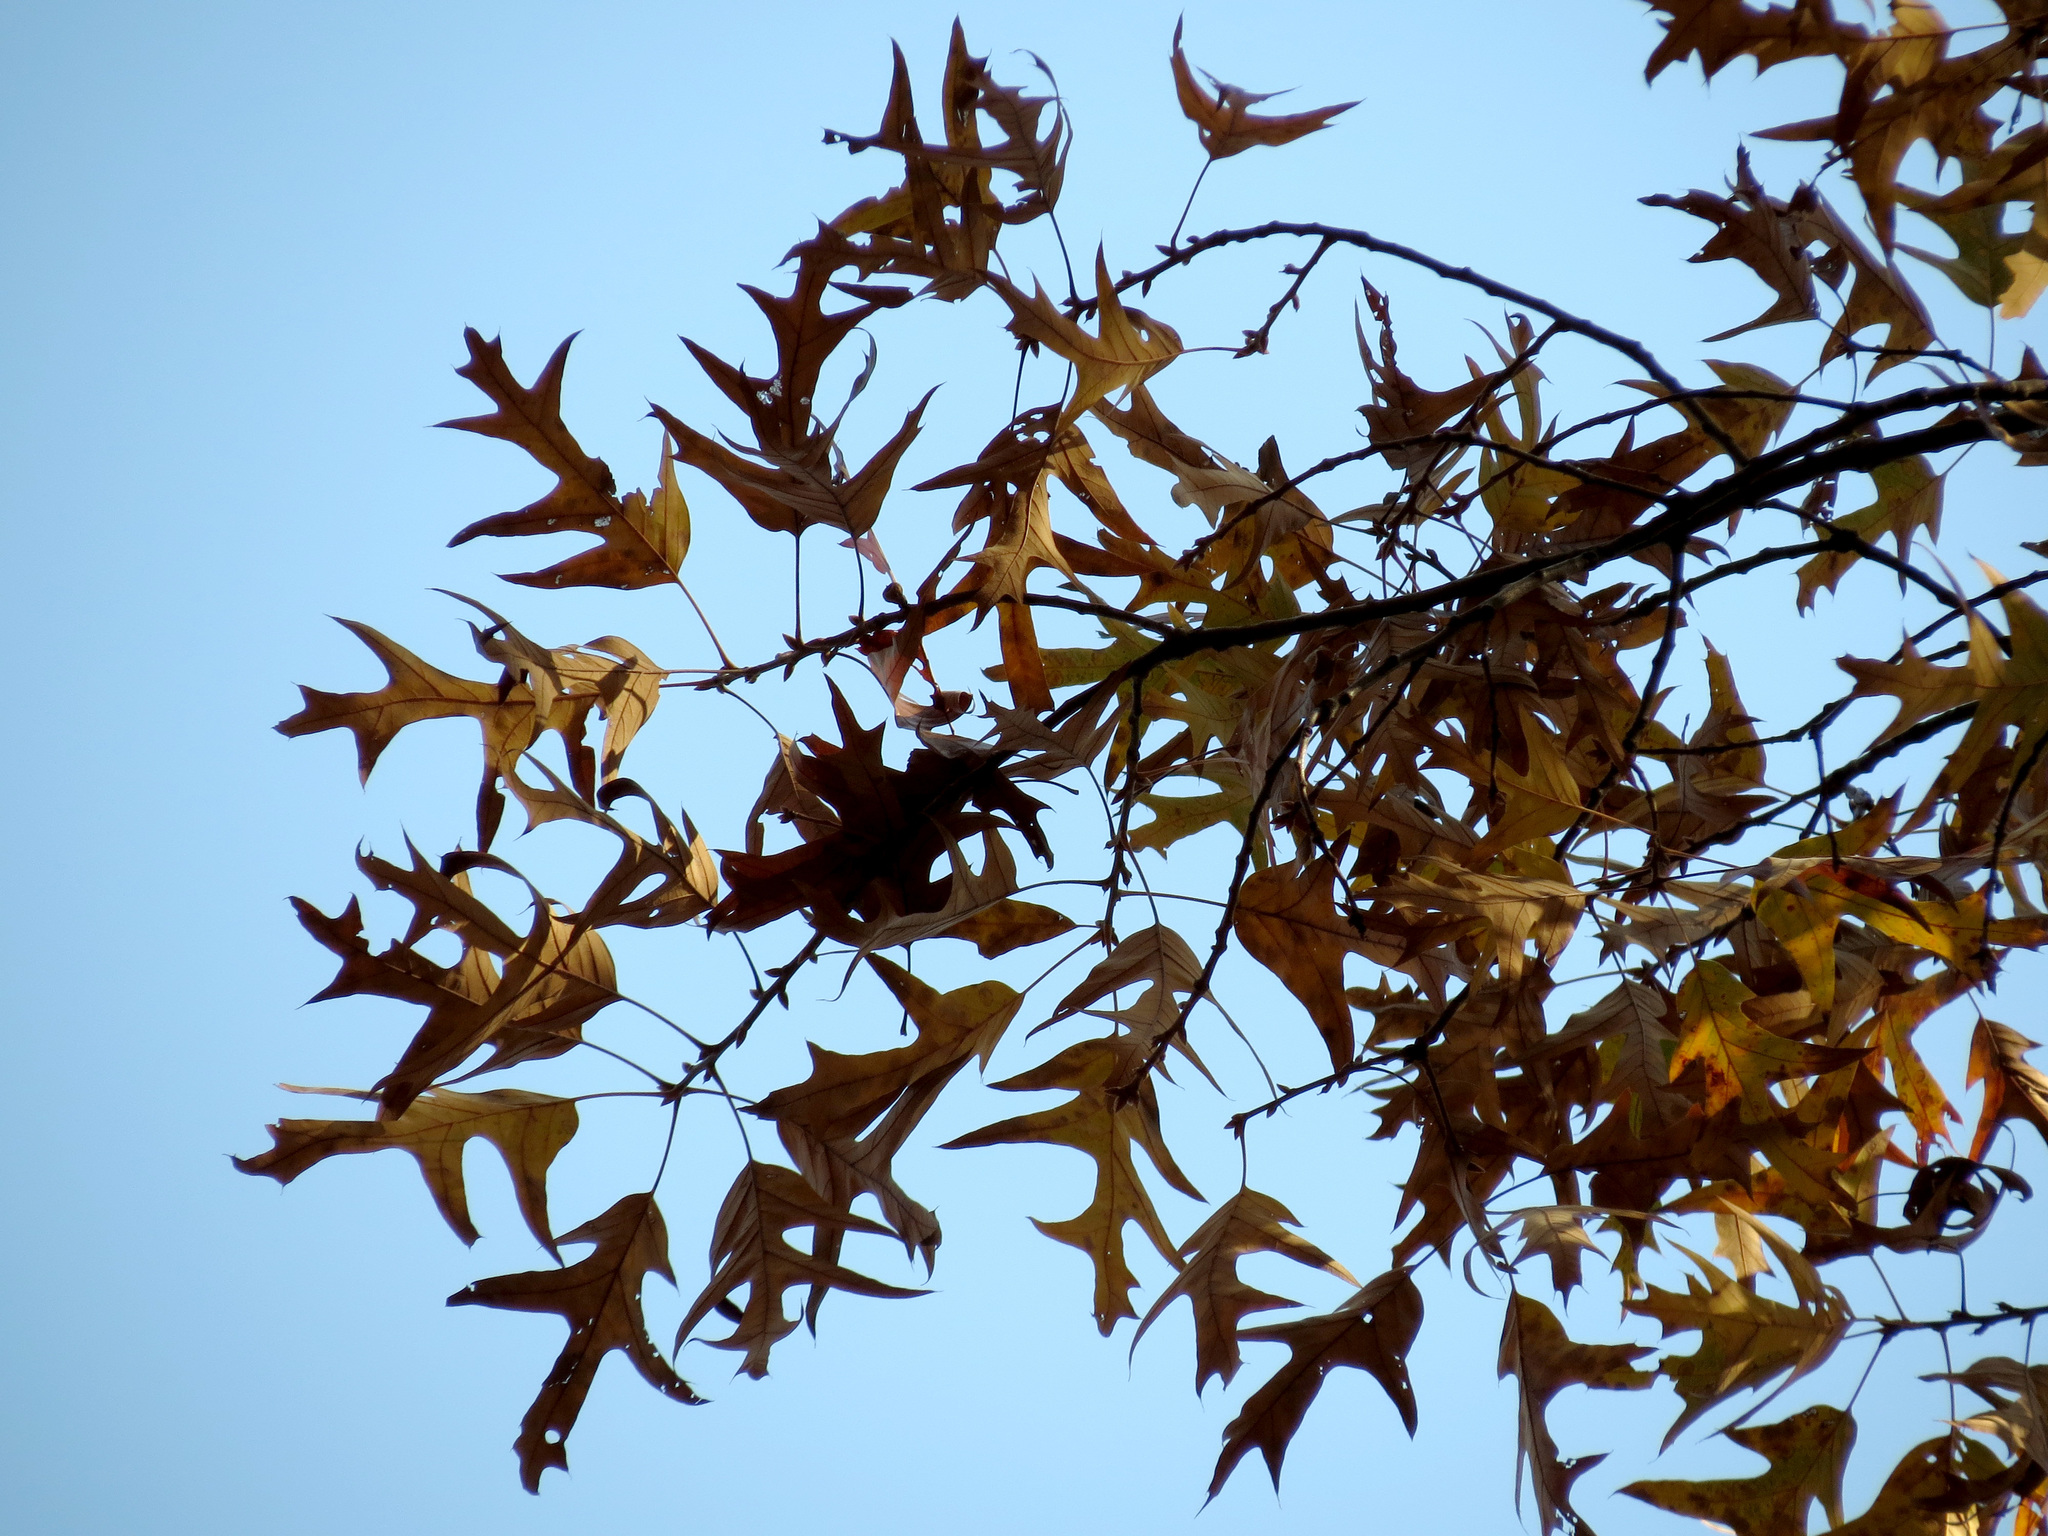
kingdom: Plantae
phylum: Tracheophyta
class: Magnoliopsida
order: Fagales
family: Fagaceae
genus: Quercus
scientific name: Quercus falcata
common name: Southern red oak
